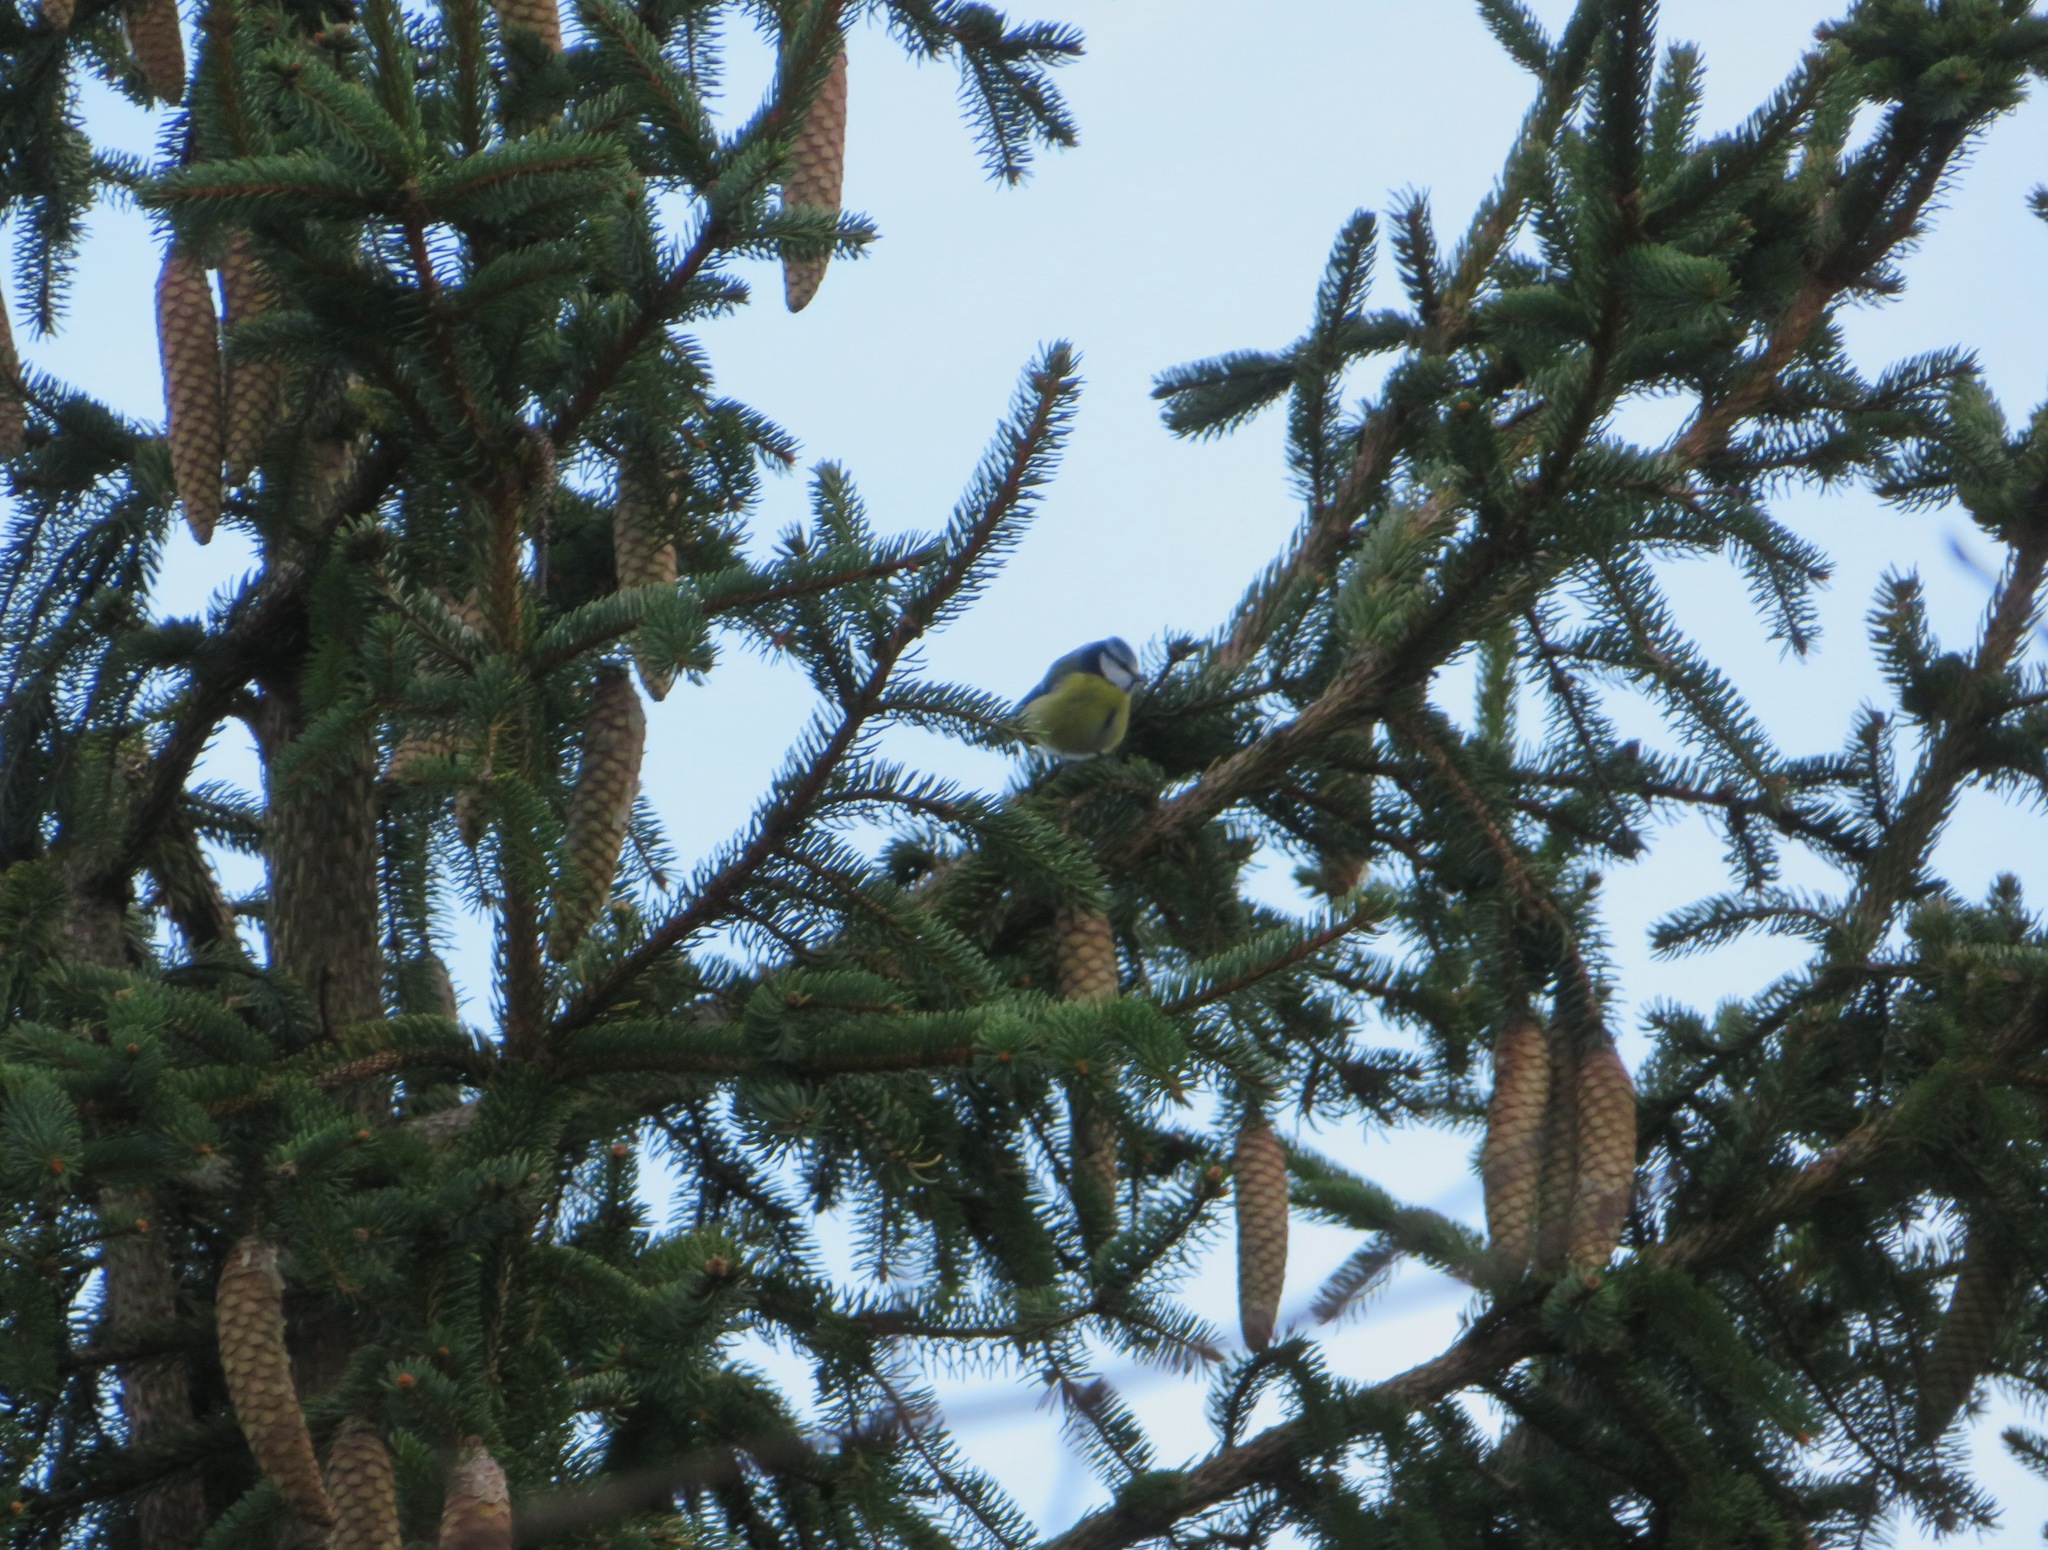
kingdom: Animalia
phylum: Chordata
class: Aves
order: Passeriformes
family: Paridae
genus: Cyanistes
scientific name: Cyanistes caeruleus
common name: Eurasian blue tit
